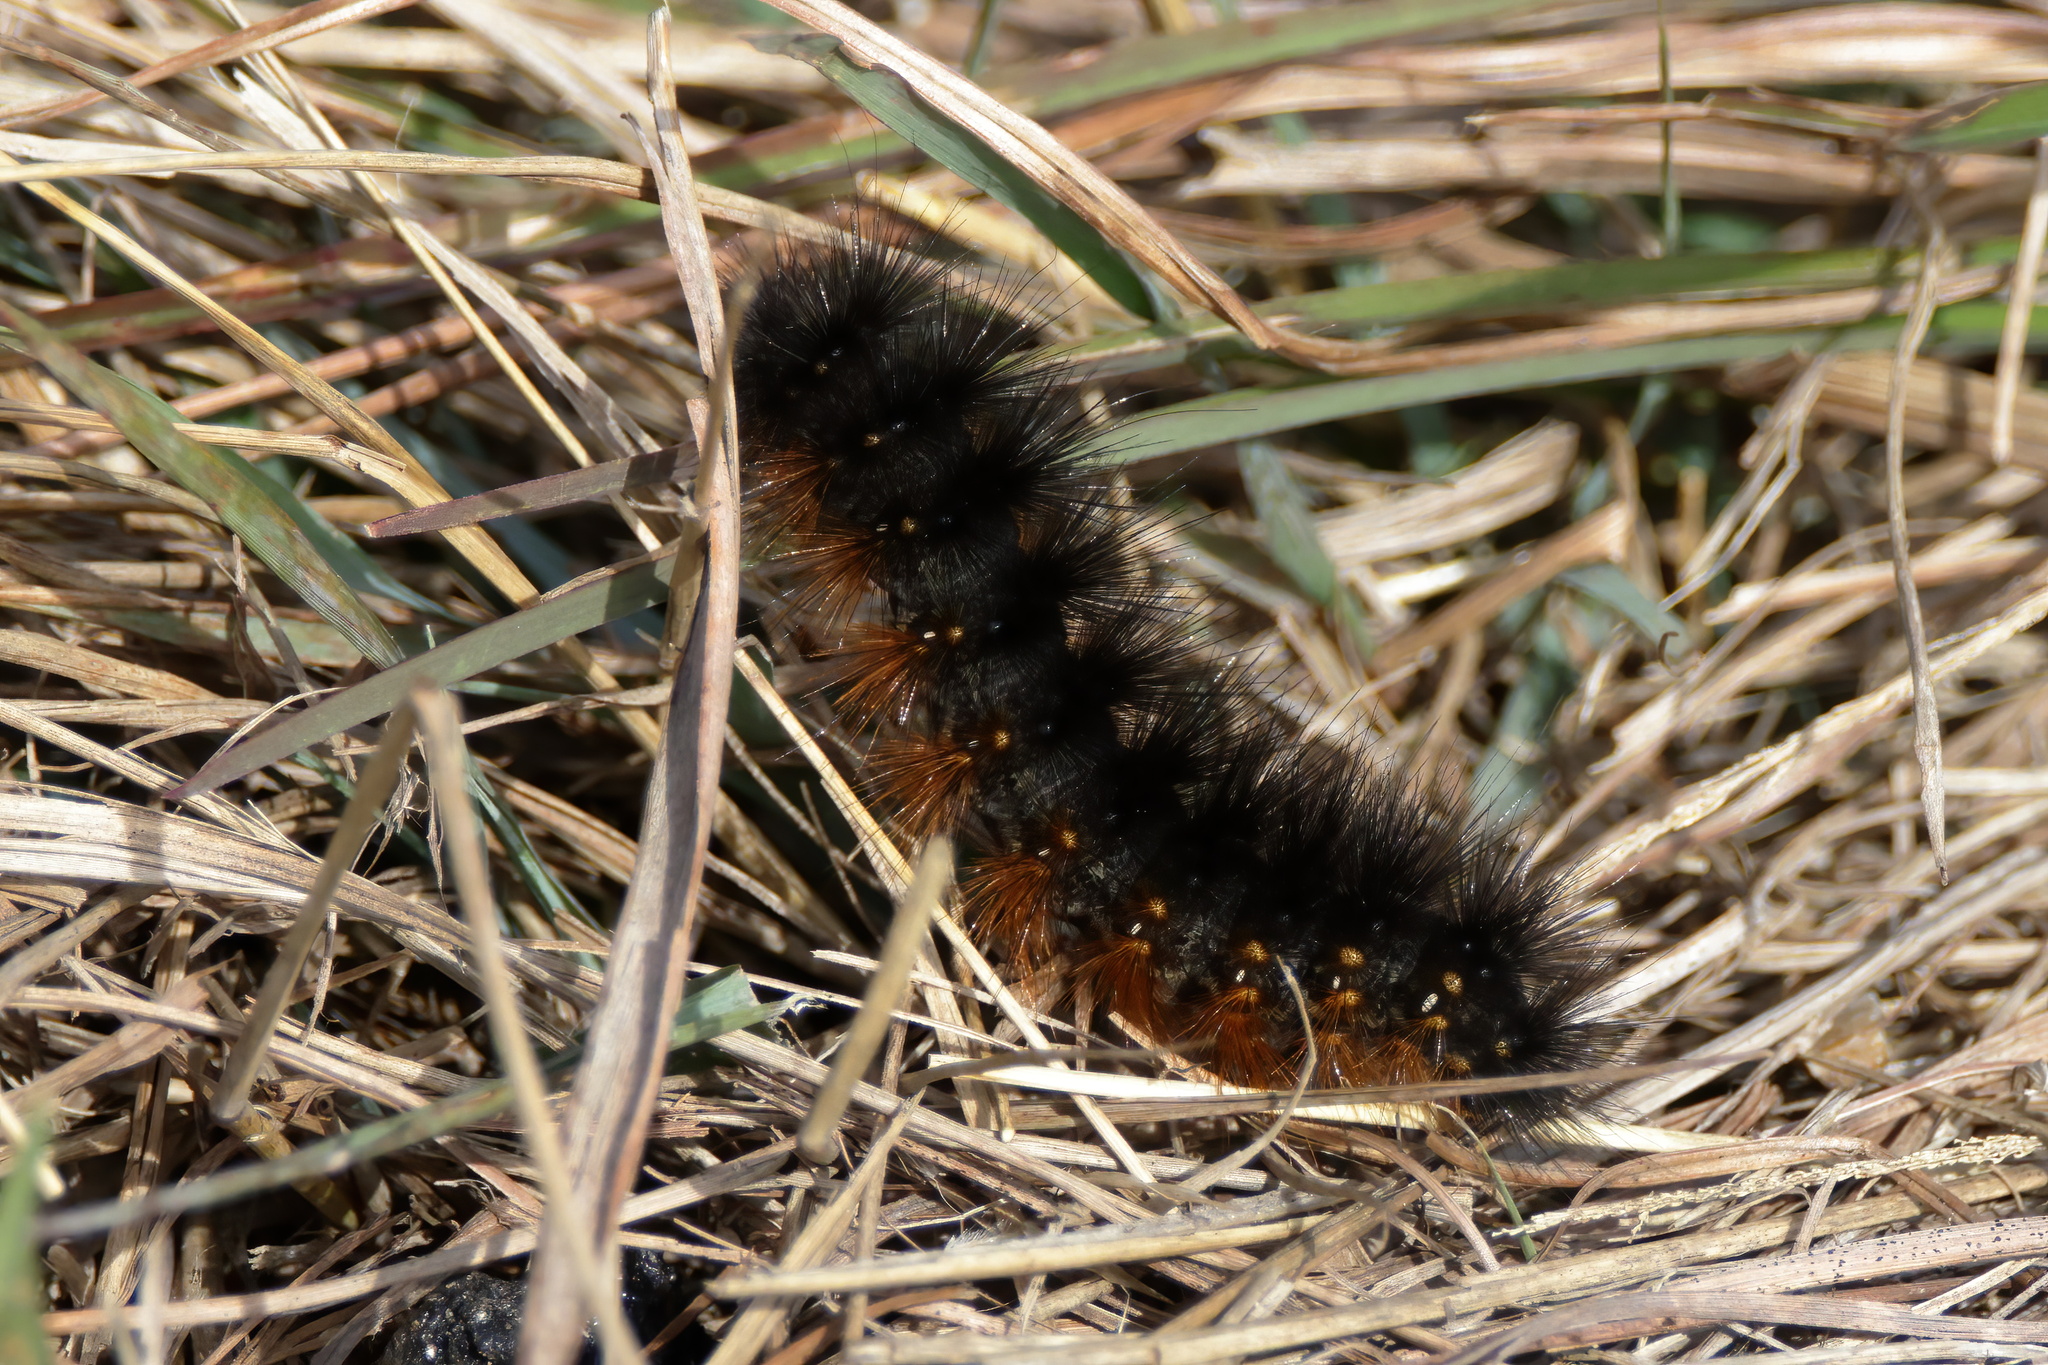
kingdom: Animalia
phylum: Arthropoda
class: Insecta
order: Lepidoptera
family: Erebidae
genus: Estigmene
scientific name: Estigmene acrea
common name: Salt marsh moth
